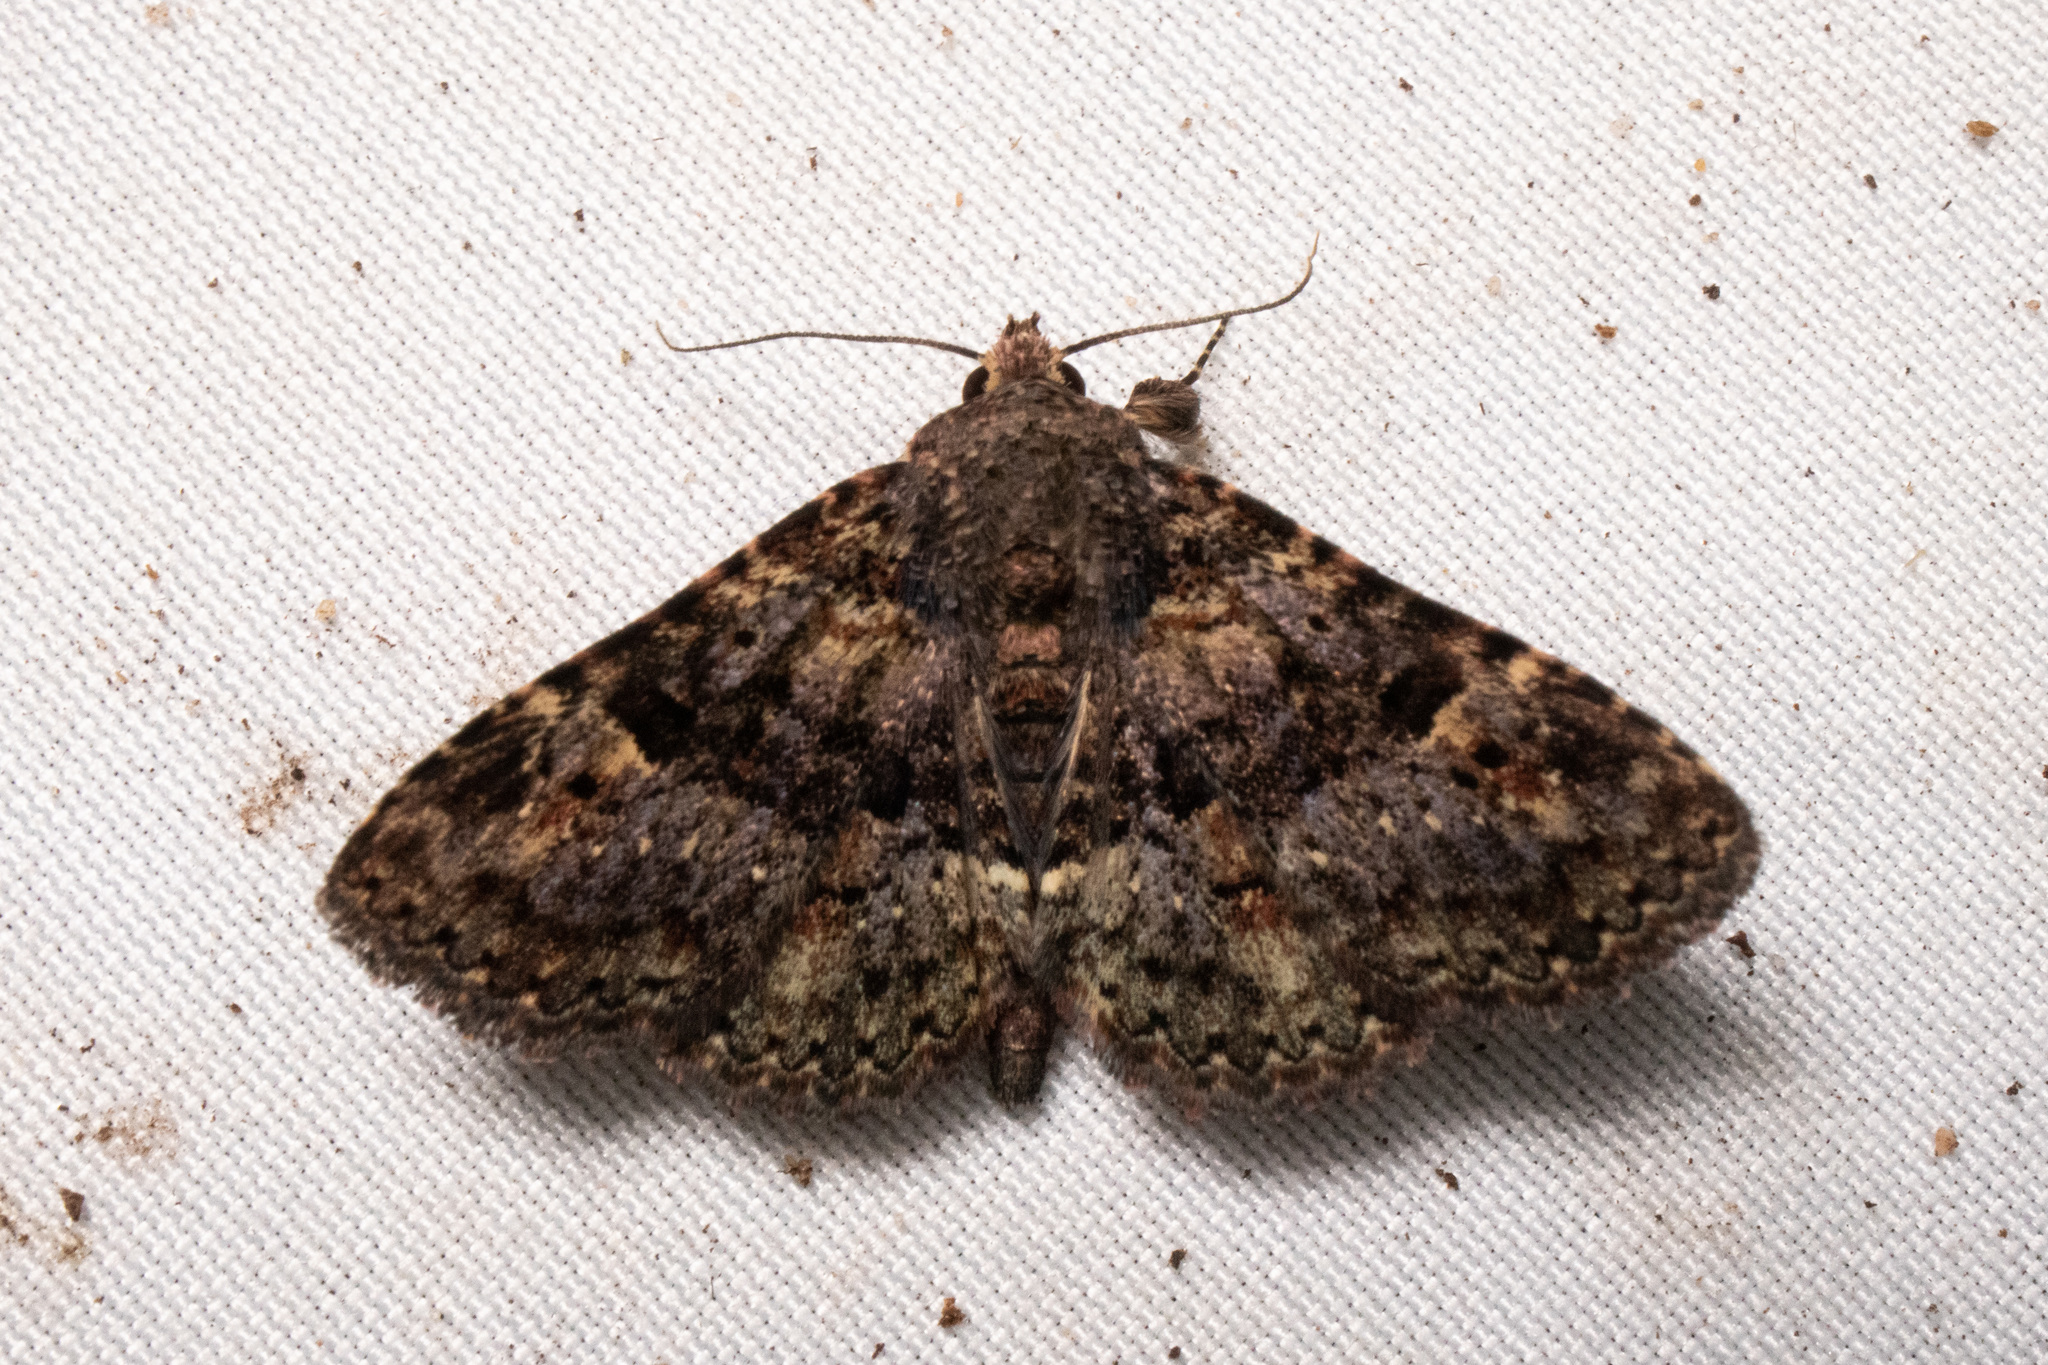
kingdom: Animalia
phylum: Arthropoda
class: Insecta
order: Lepidoptera
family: Erebidae
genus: Metalectra
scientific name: Metalectra discalis
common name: Common fungus moth
